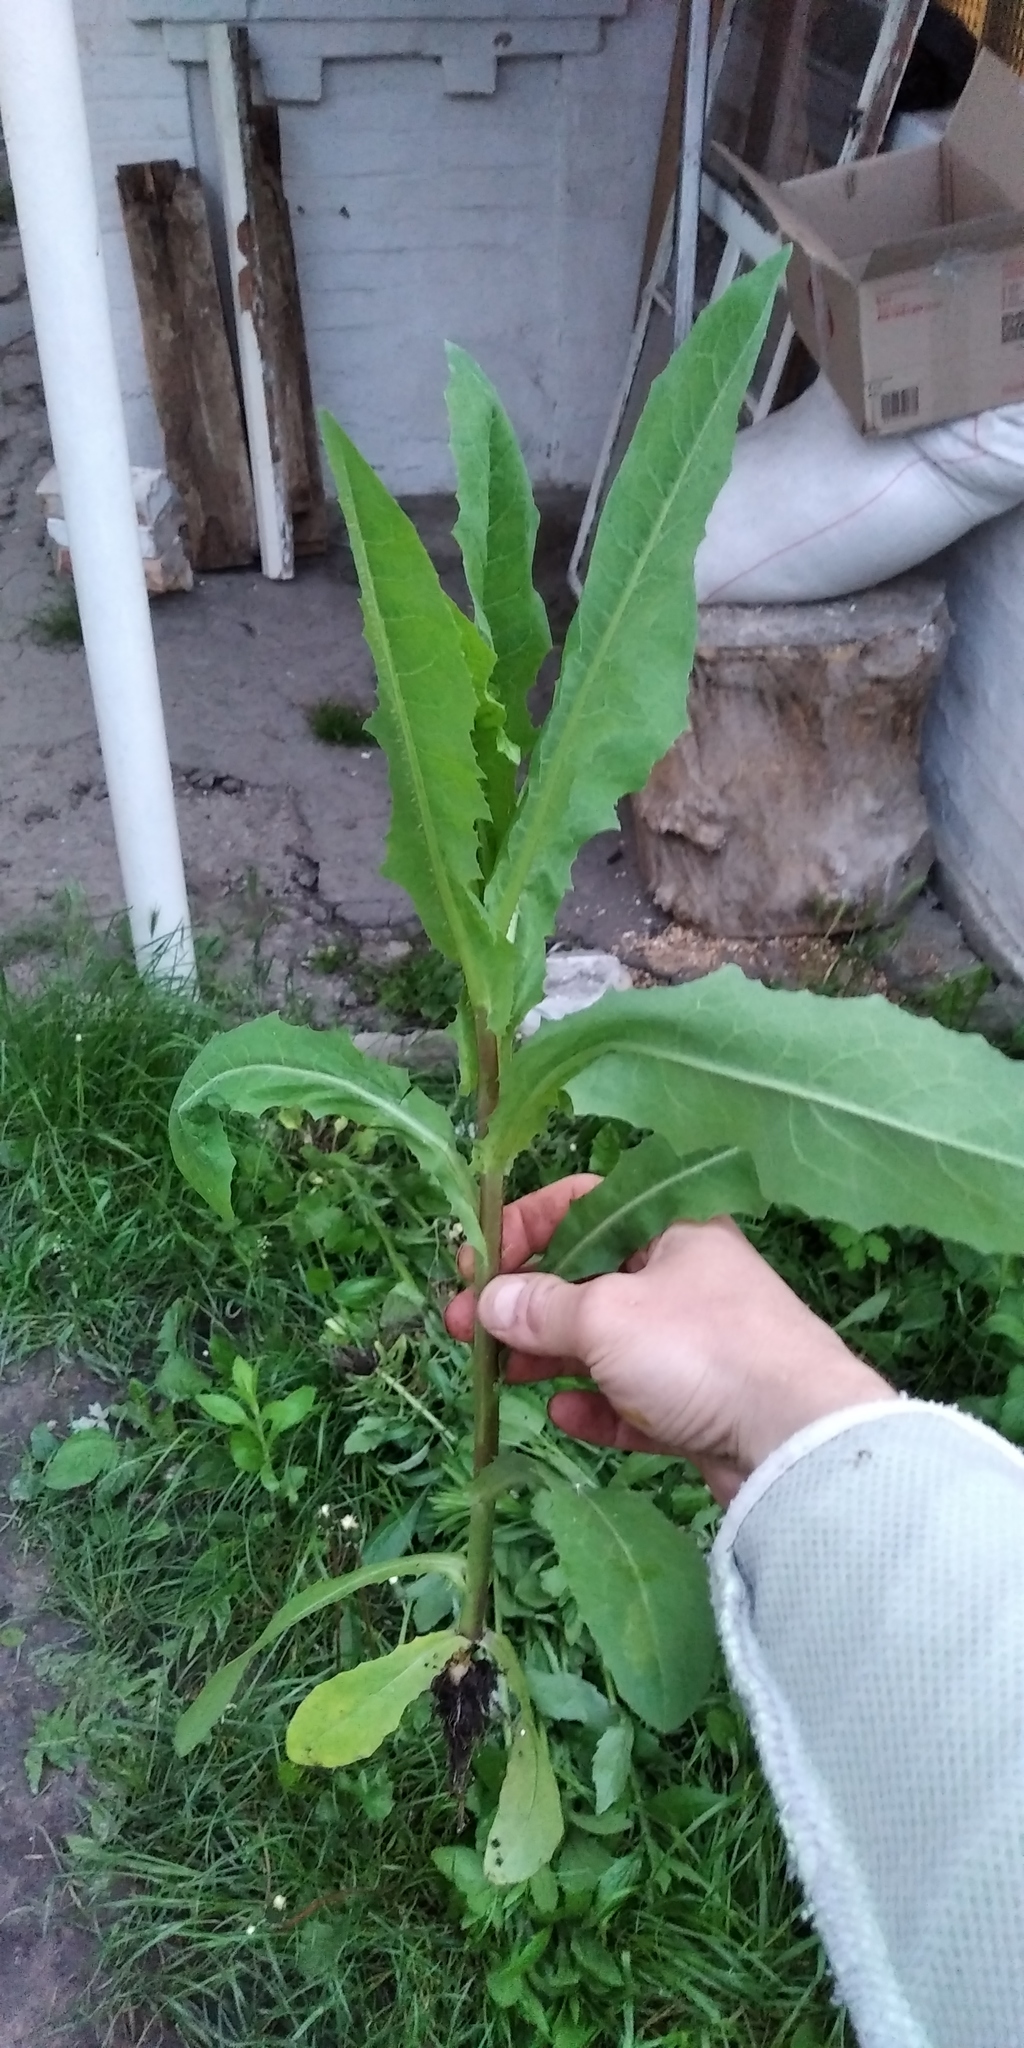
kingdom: Plantae
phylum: Tracheophyta
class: Magnoliopsida
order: Asterales
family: Asteraceae
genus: Lactuca
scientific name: Lactuca serriola
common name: Prickly lettuce
